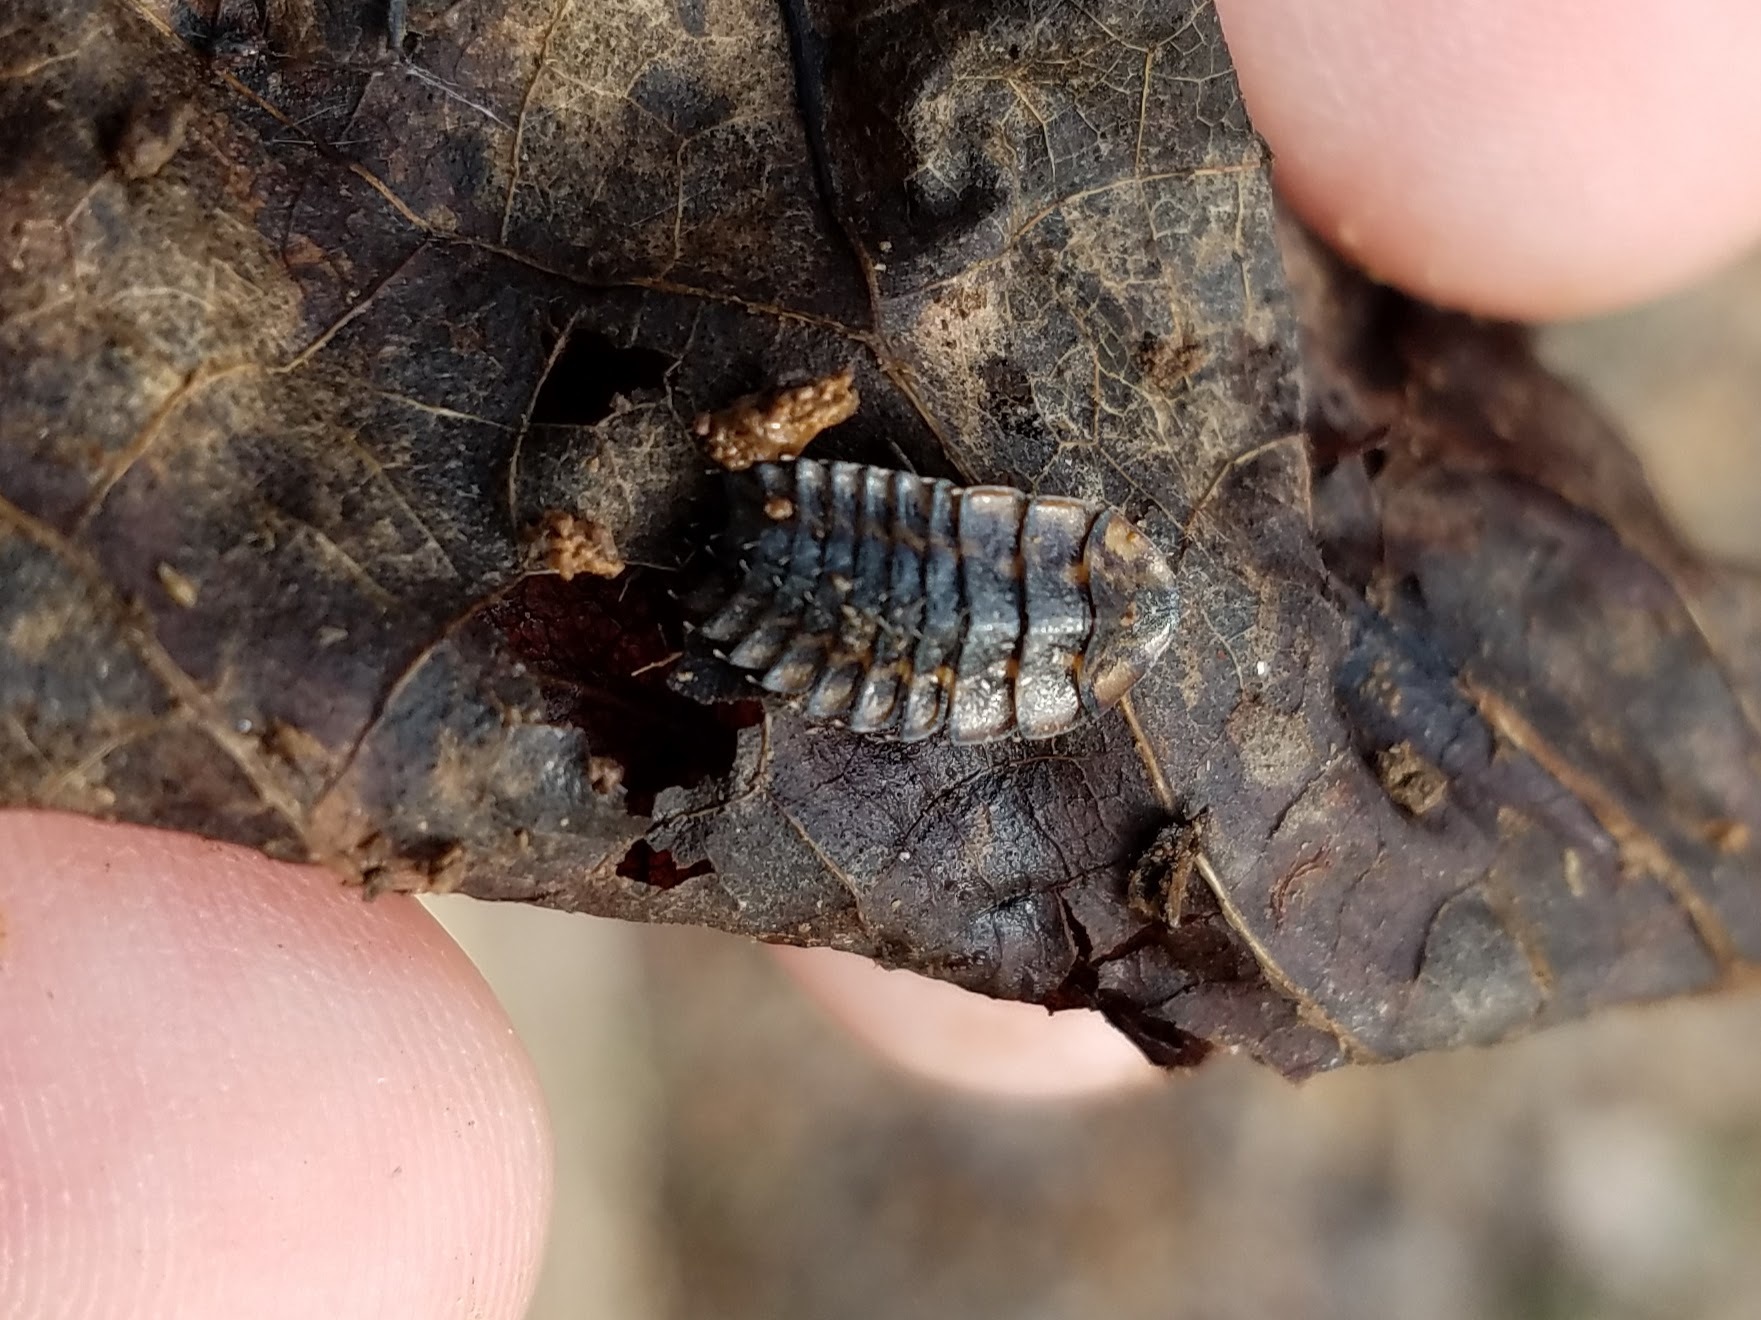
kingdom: Animalia
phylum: Arthropoda
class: Insecta
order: Coleoptera
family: Lampyridae
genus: Photuris
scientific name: Photuris
